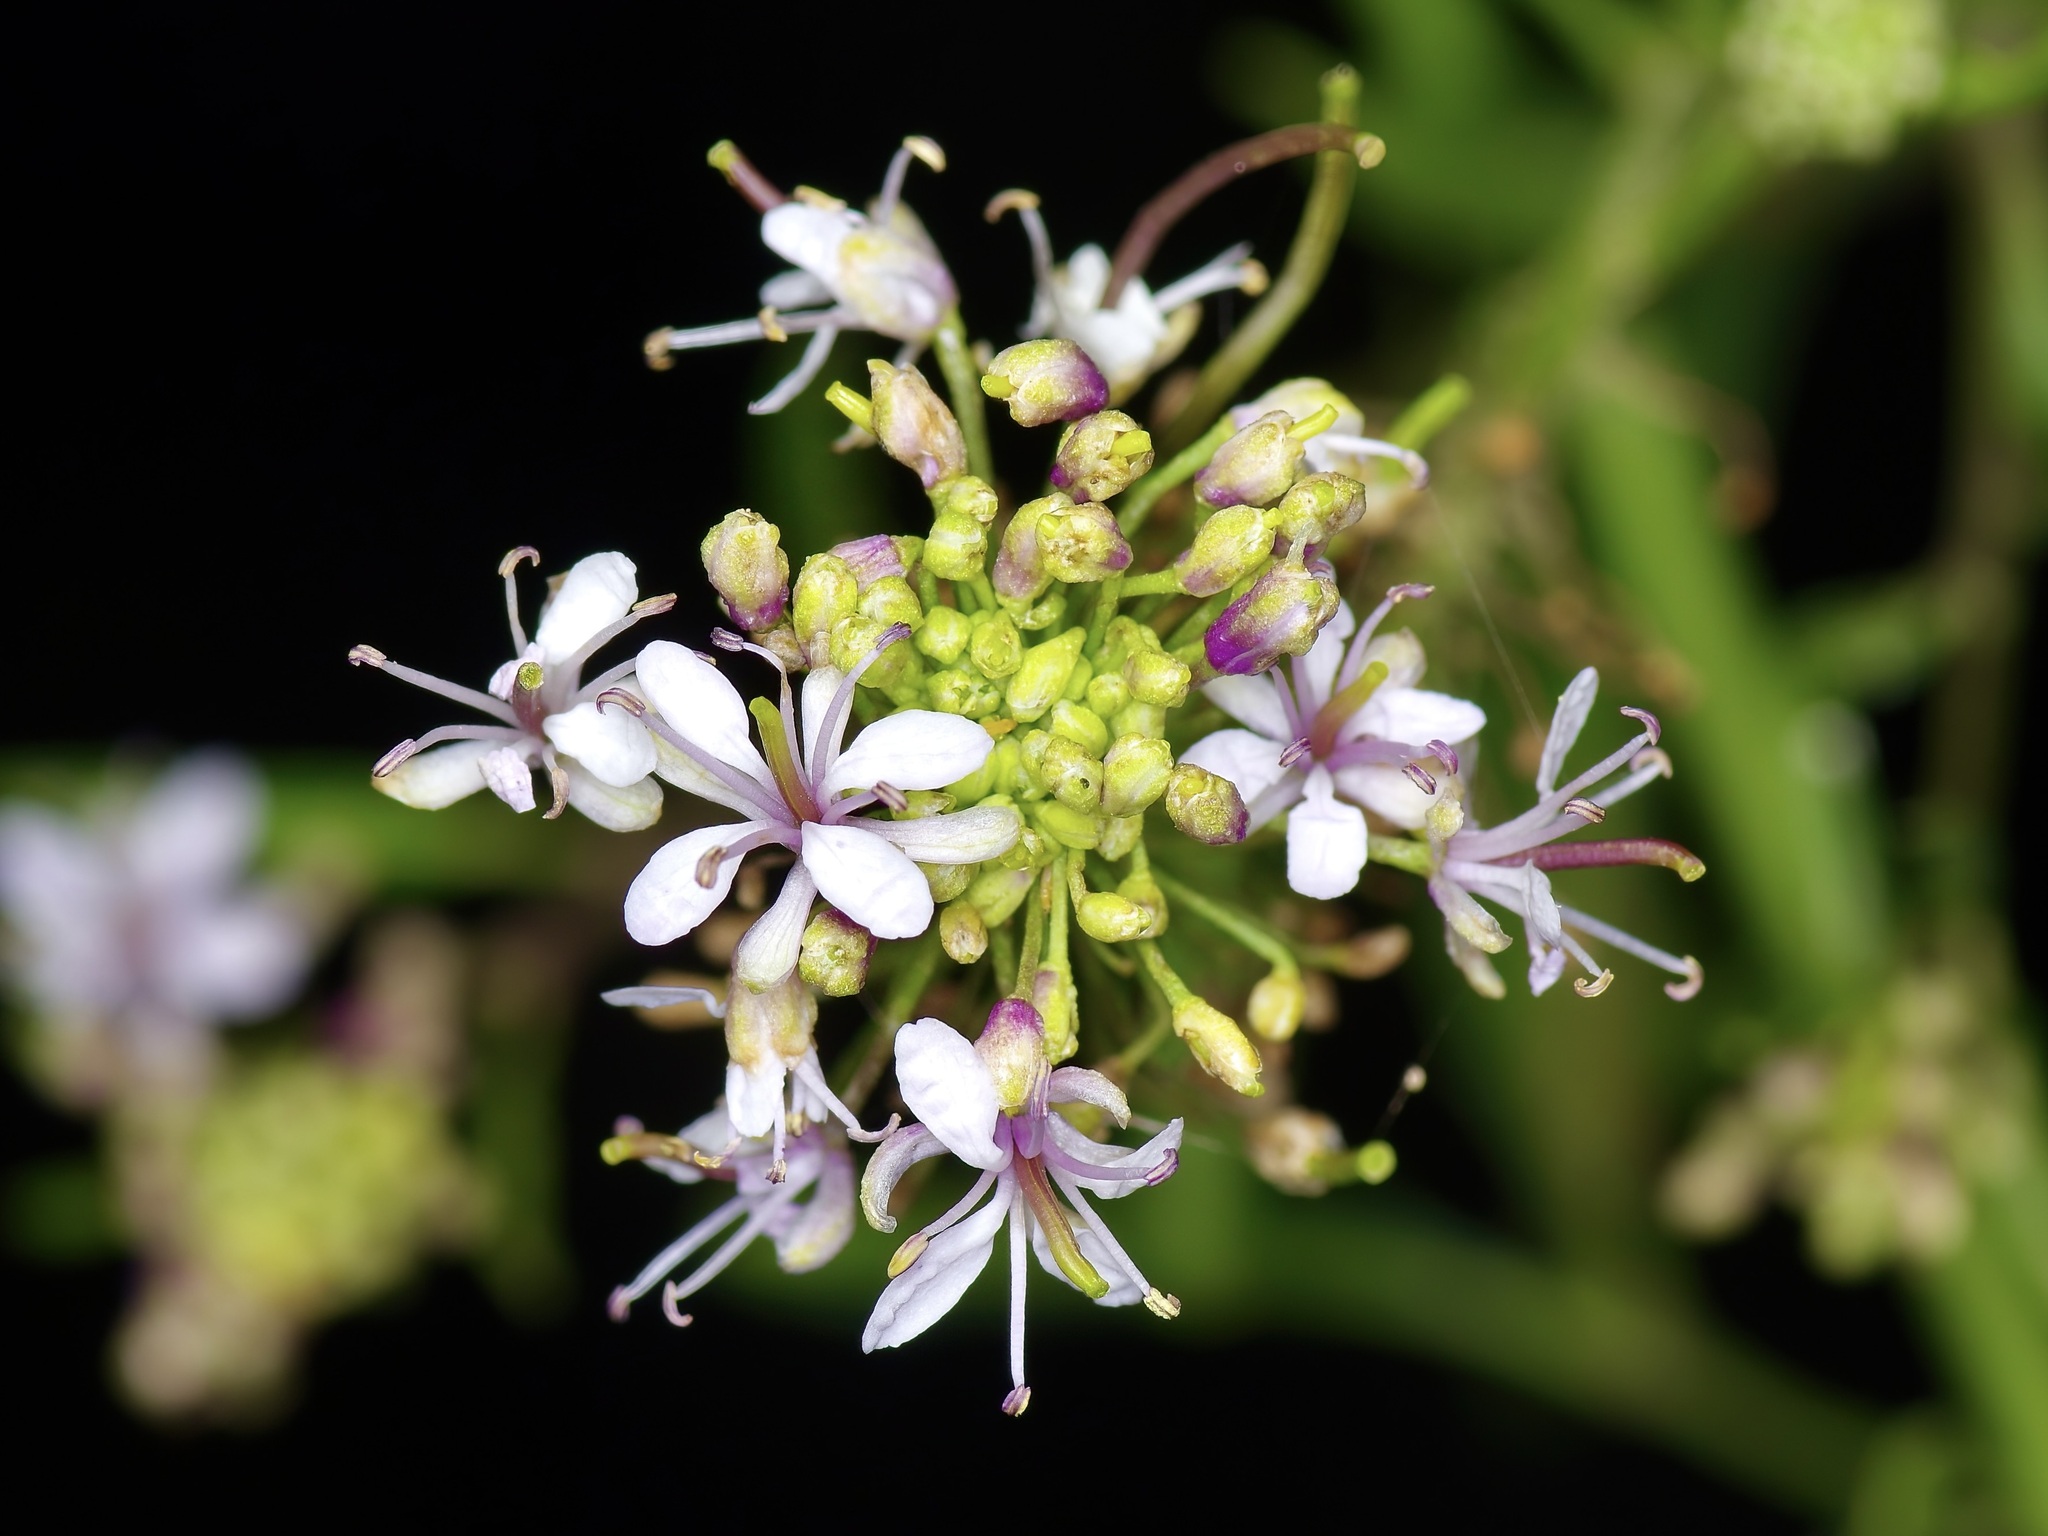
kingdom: Plantae
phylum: Tracheophyta
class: Magnoliopsida
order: Brassicales
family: Brassicaceae
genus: Thelypodium
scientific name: Thelypodium wrightii
